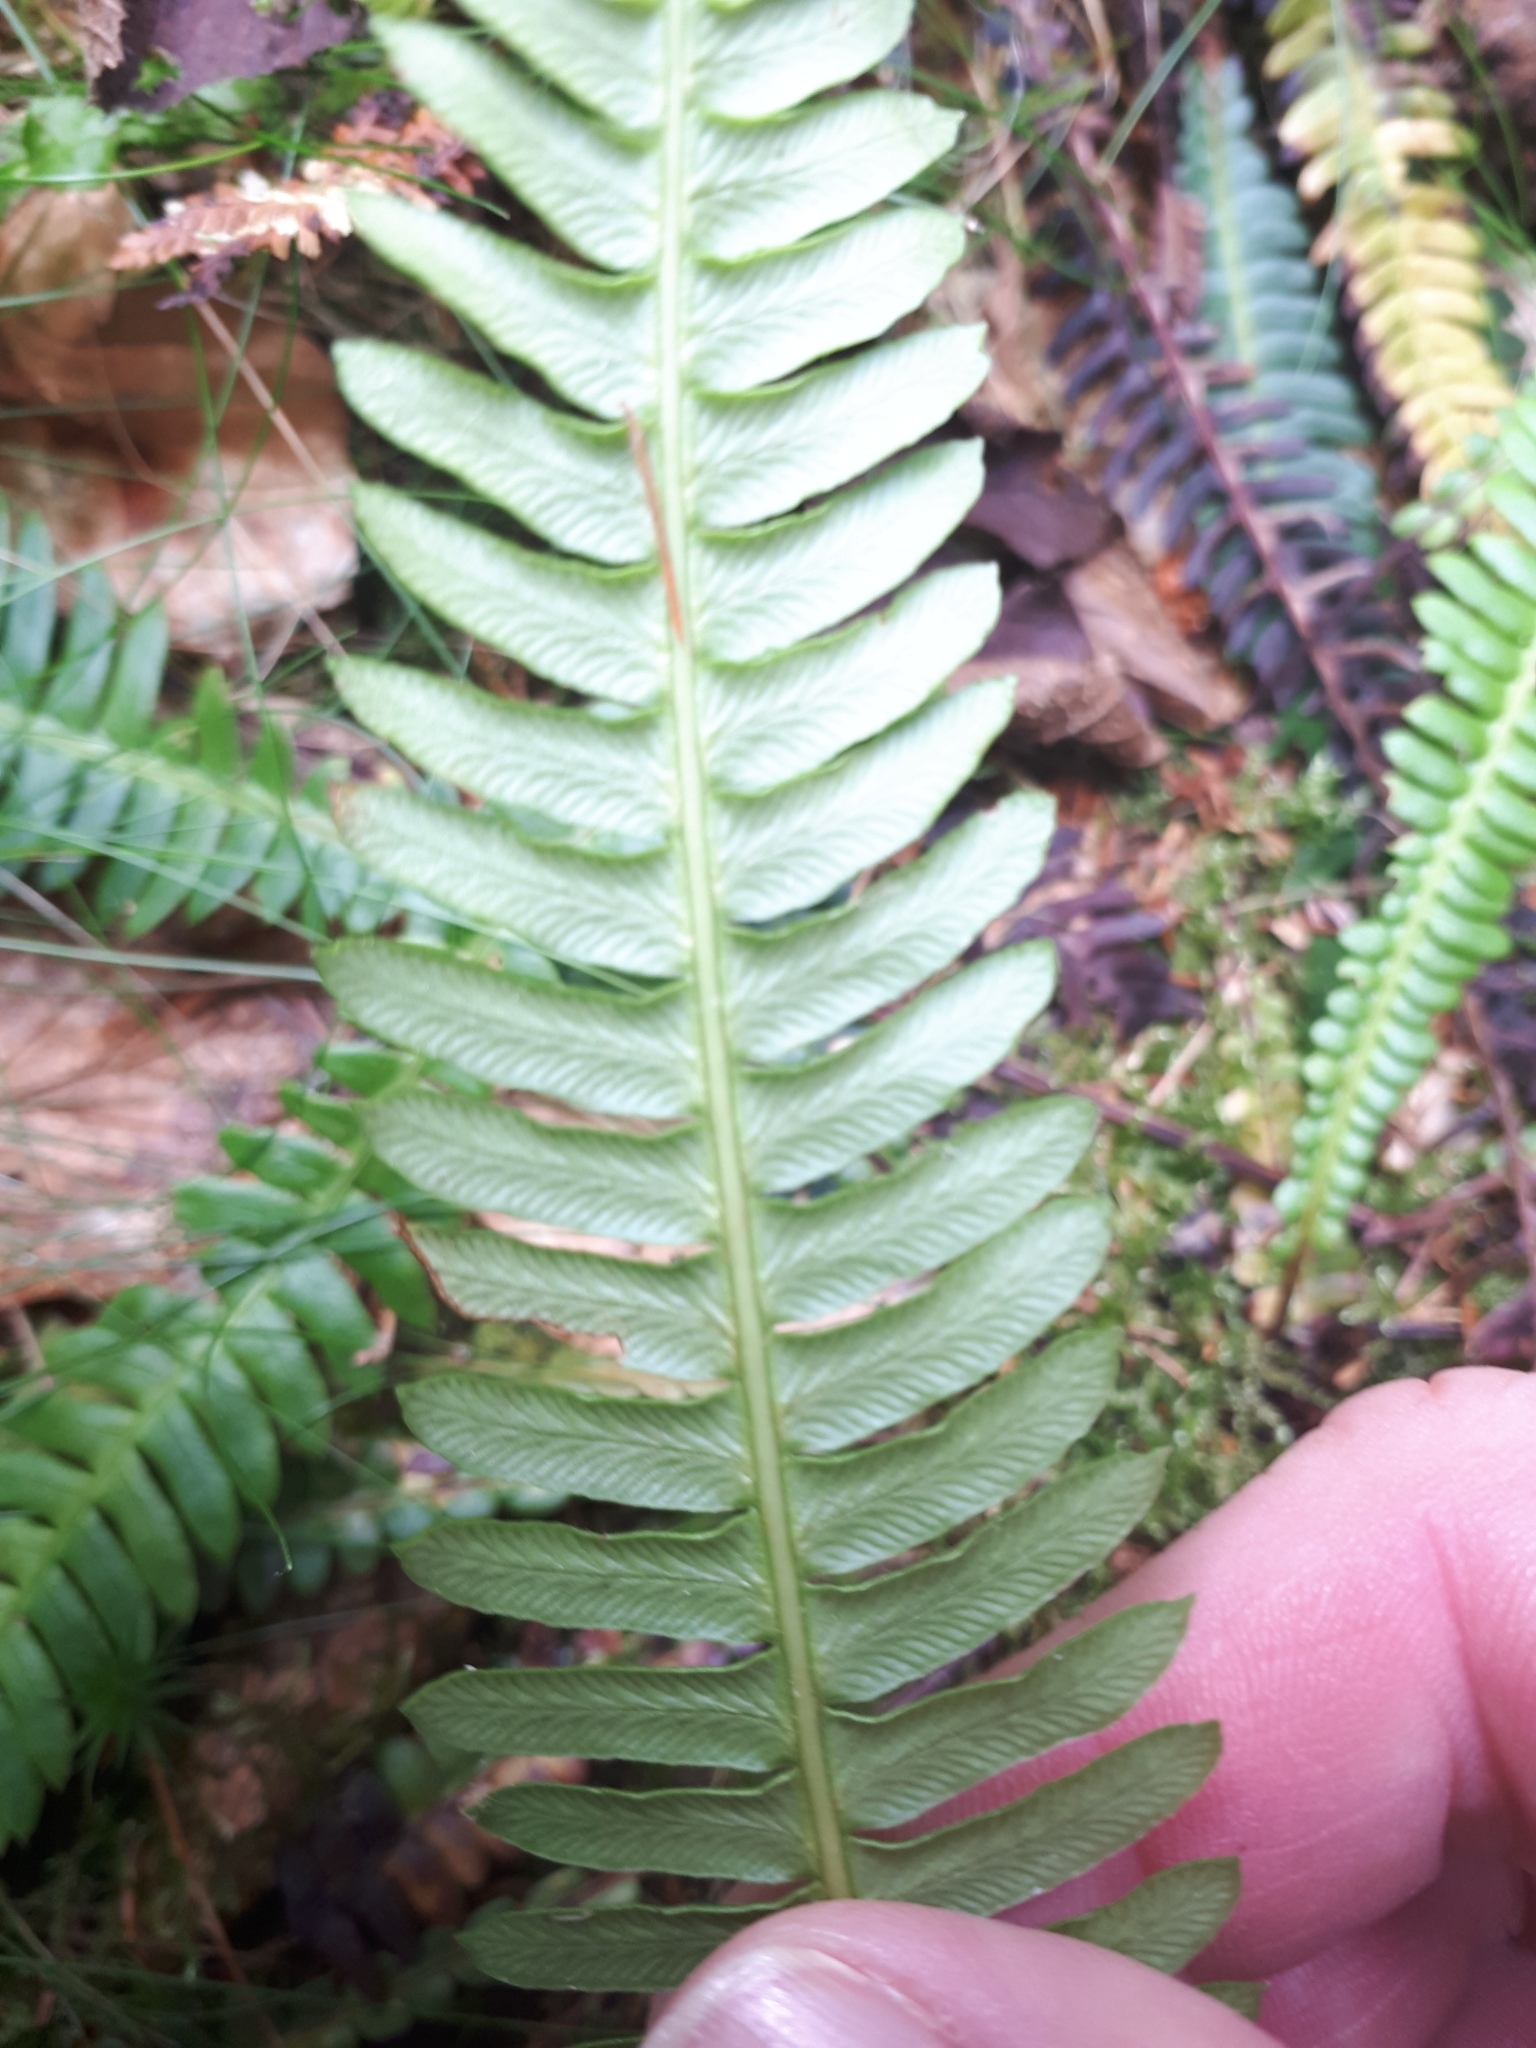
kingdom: Plantae
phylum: Tracheophyta
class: Polypodiopsida
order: Polypodiales
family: Blechnaceae
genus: Struthiopteris
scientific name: Struthiopteris spicant
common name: Deer fern
